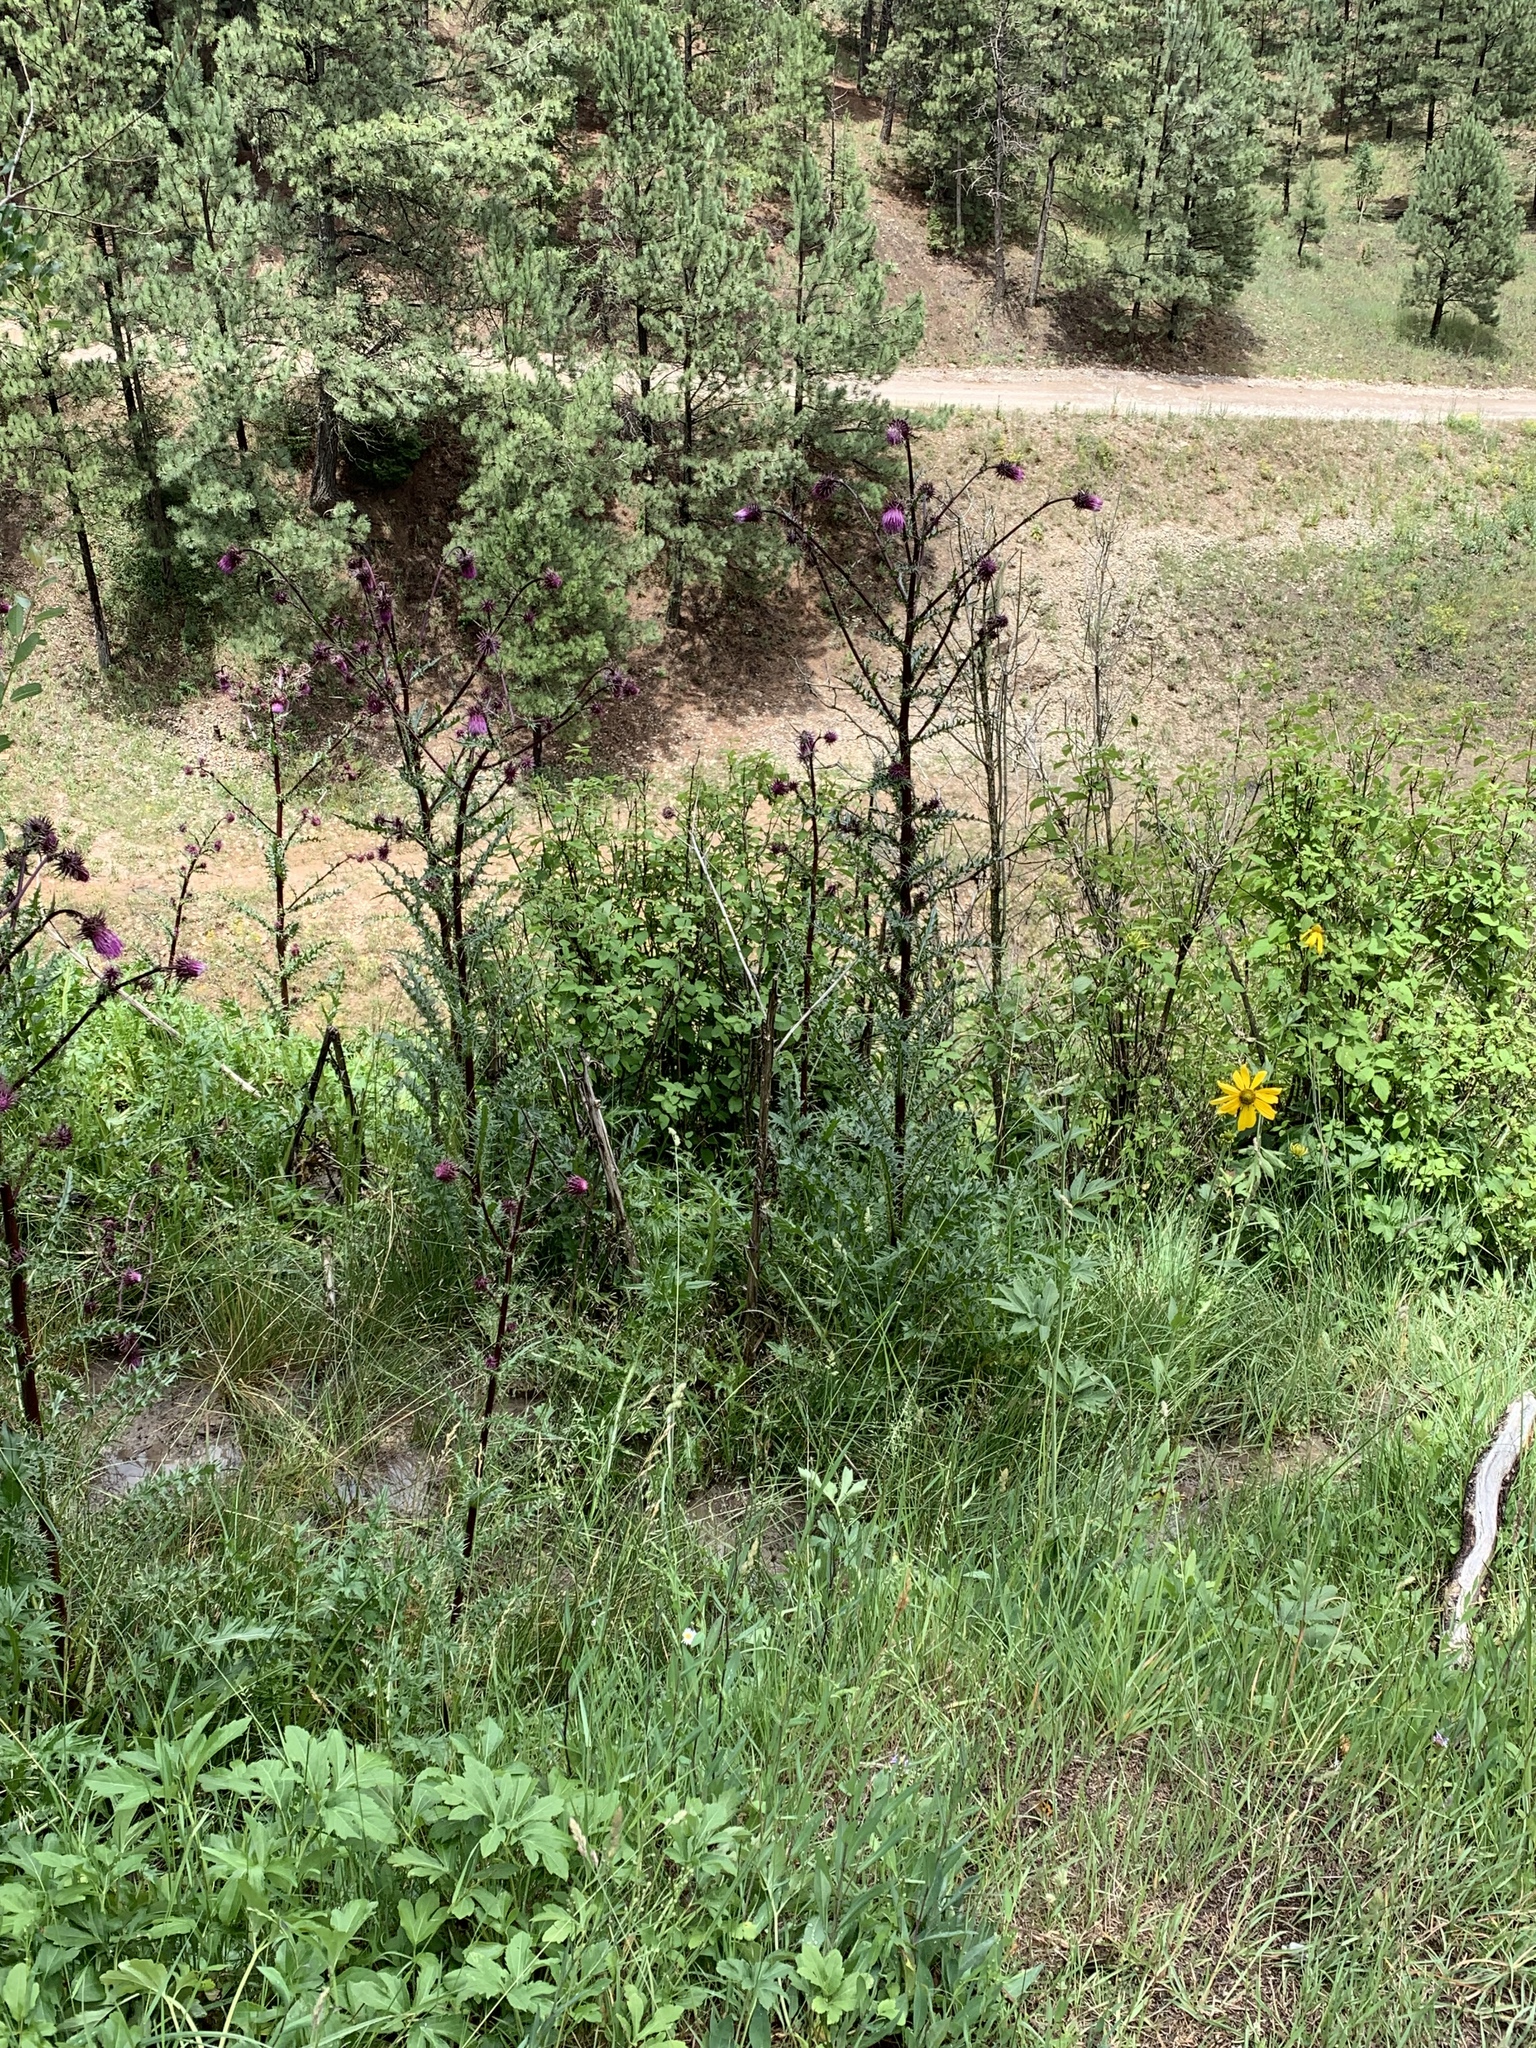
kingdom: Plantae
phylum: Tracheophyta
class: Magnoliopsida
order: Asterales
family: Asteraceae
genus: Cirsium
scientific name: Cirsium vinaceum
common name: Sacramento mountain thistle
